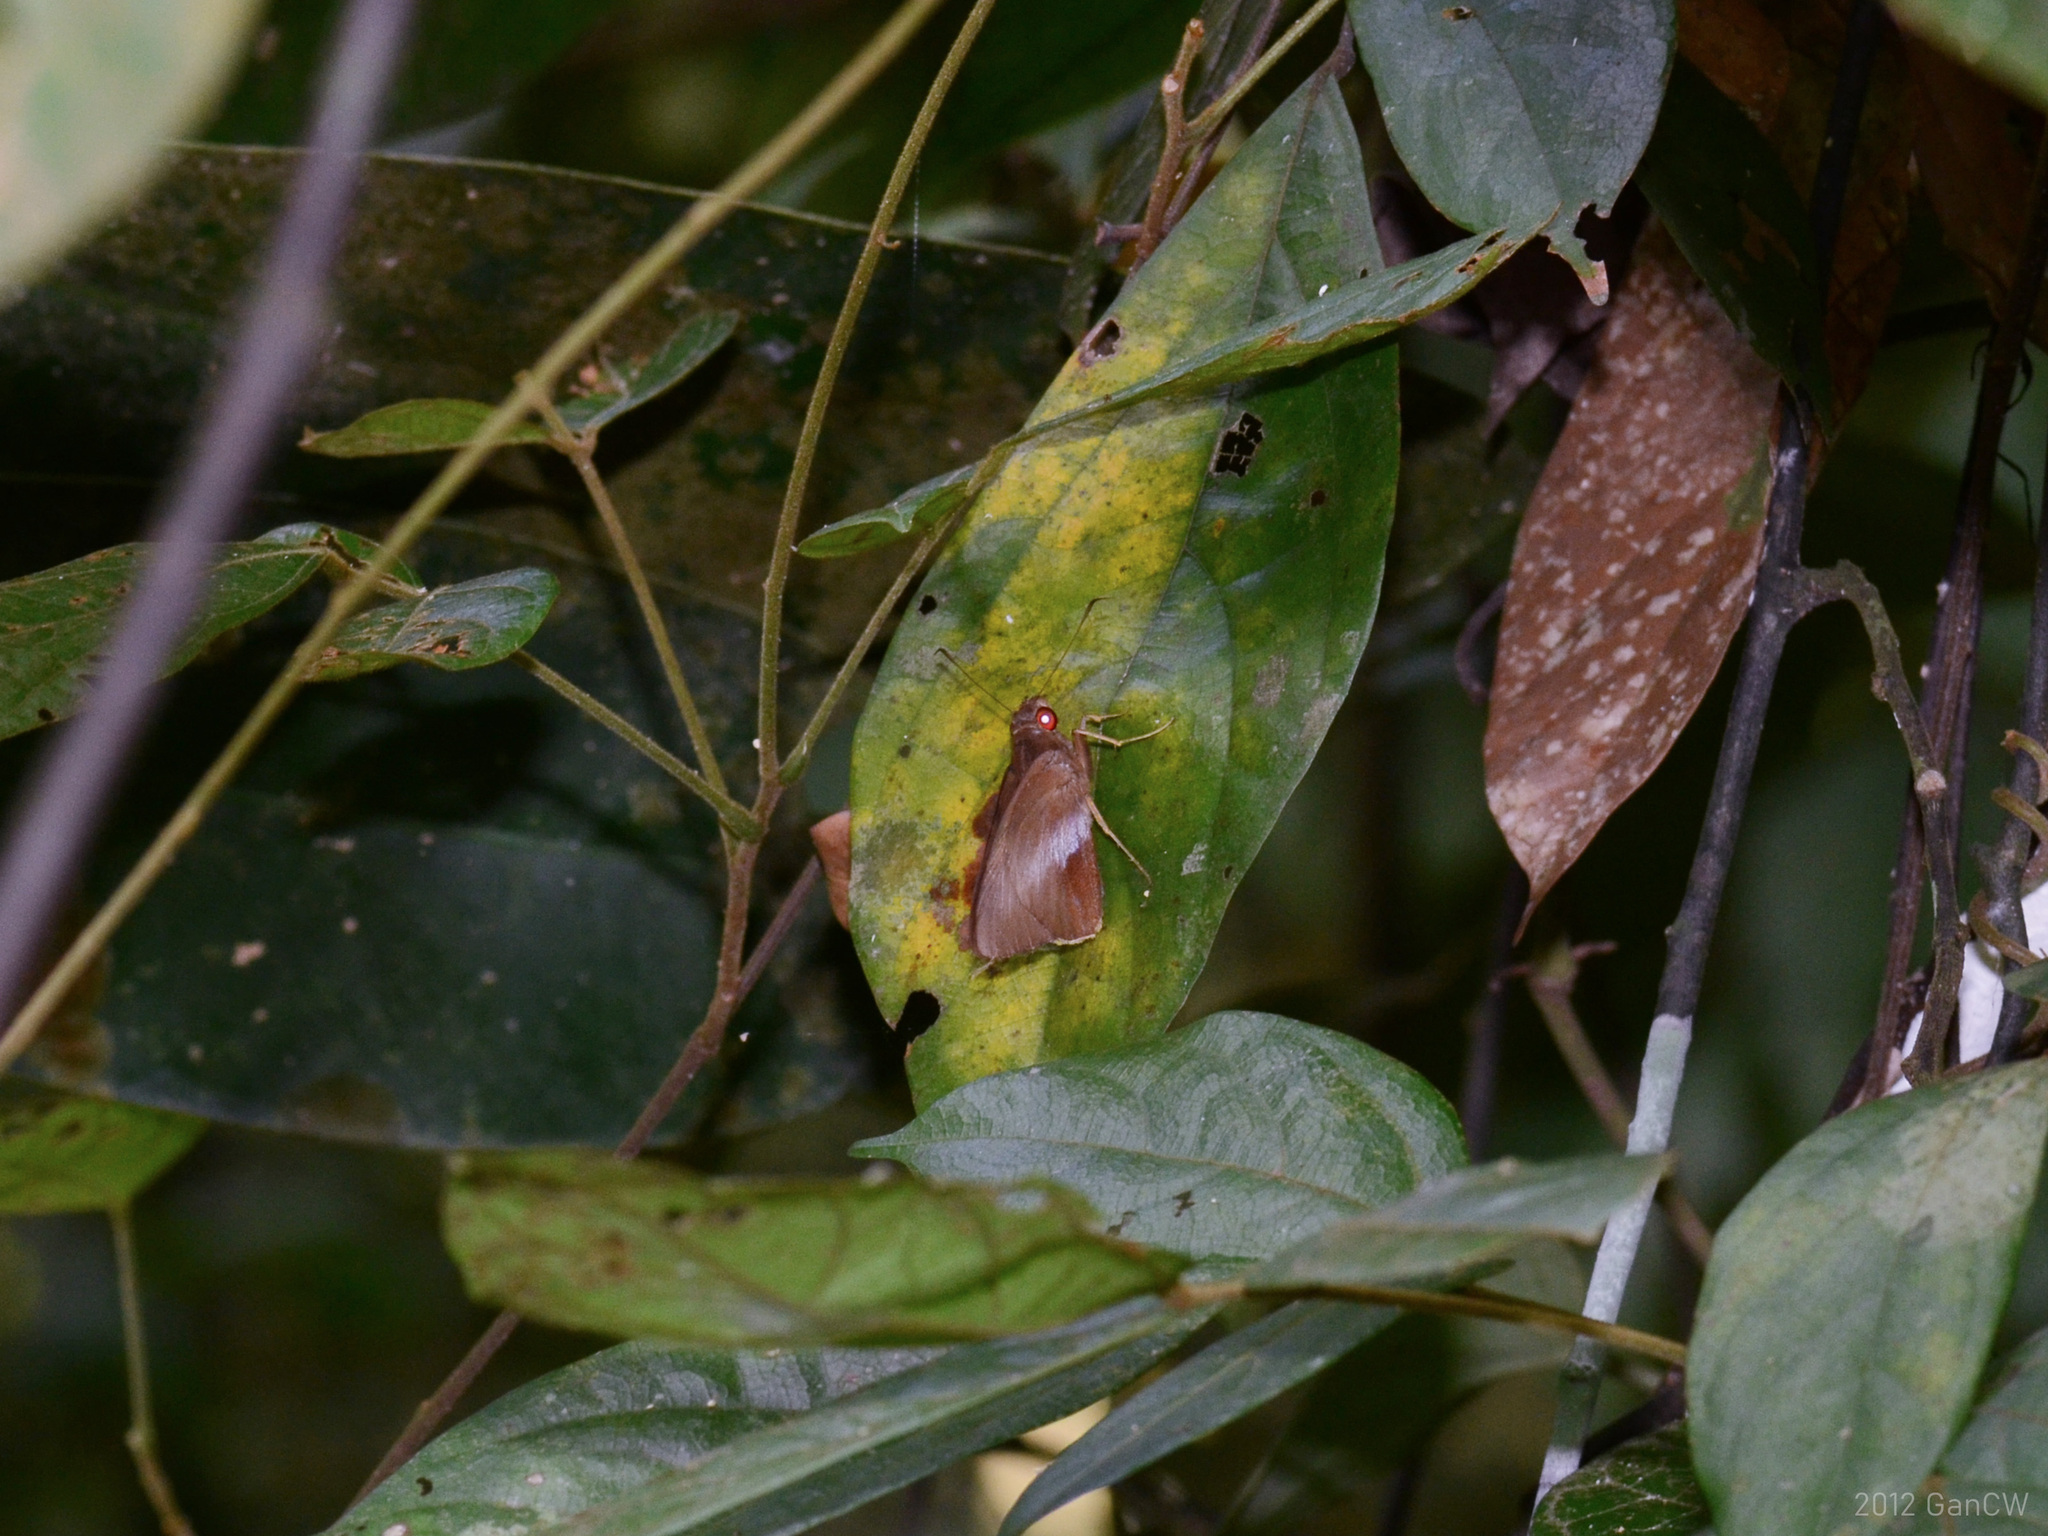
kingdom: Animalia
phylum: Arthropoda
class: Insecta
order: Lepidoptera
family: Hesperiidae
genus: Gangara
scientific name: Gangara lebadea
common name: Banded redeye
